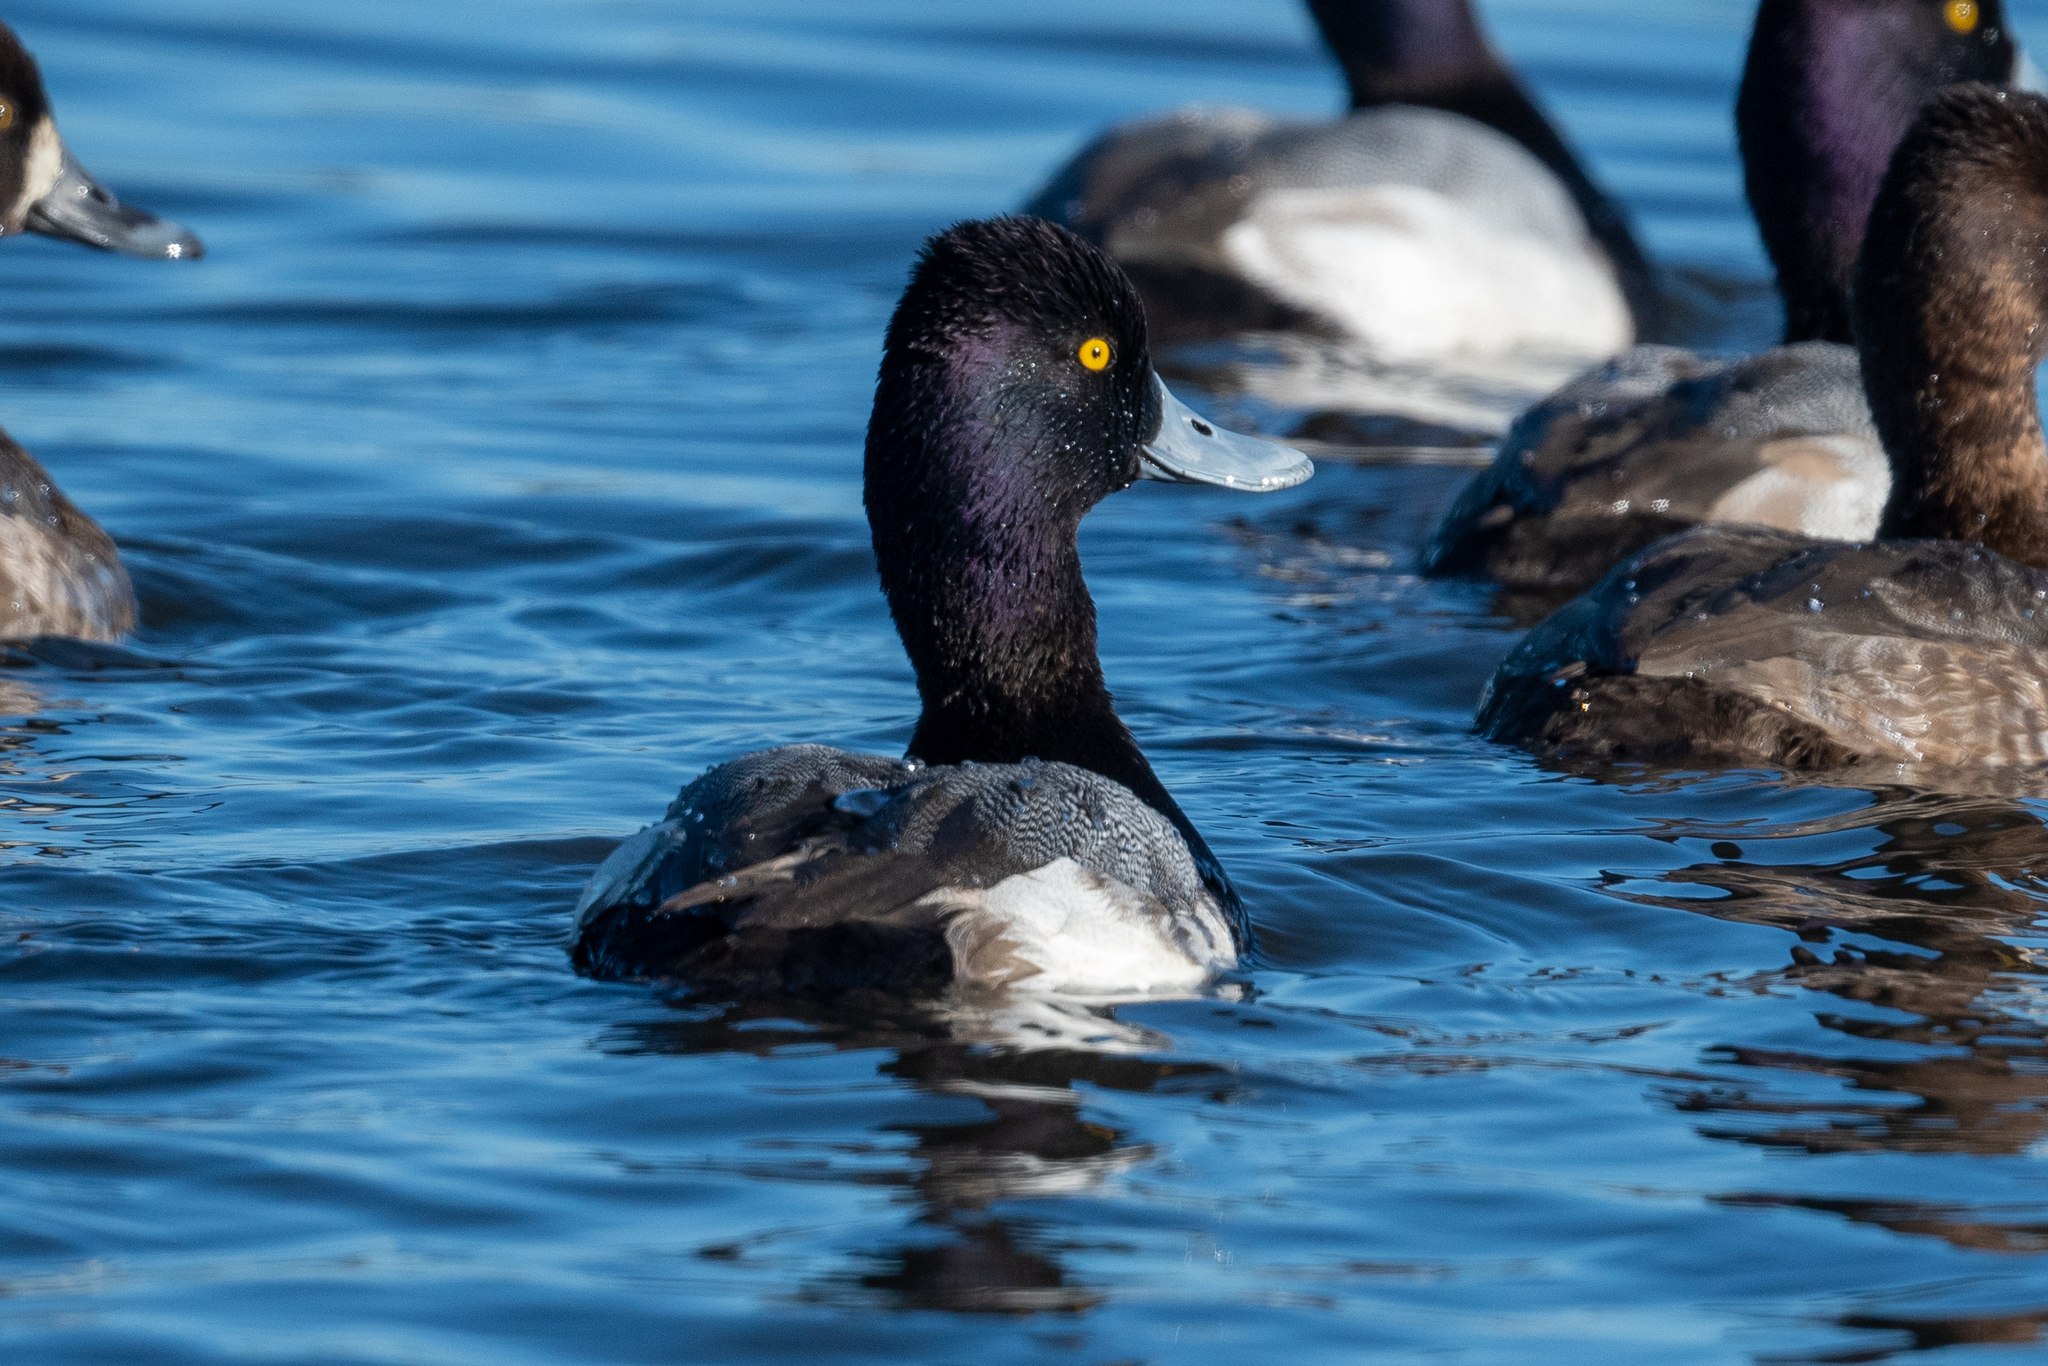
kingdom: Animalia
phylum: Chordata
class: Aves
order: Anseriformes
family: Anatidae
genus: Aythya
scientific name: Aythya affinis
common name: Lesser scaup
